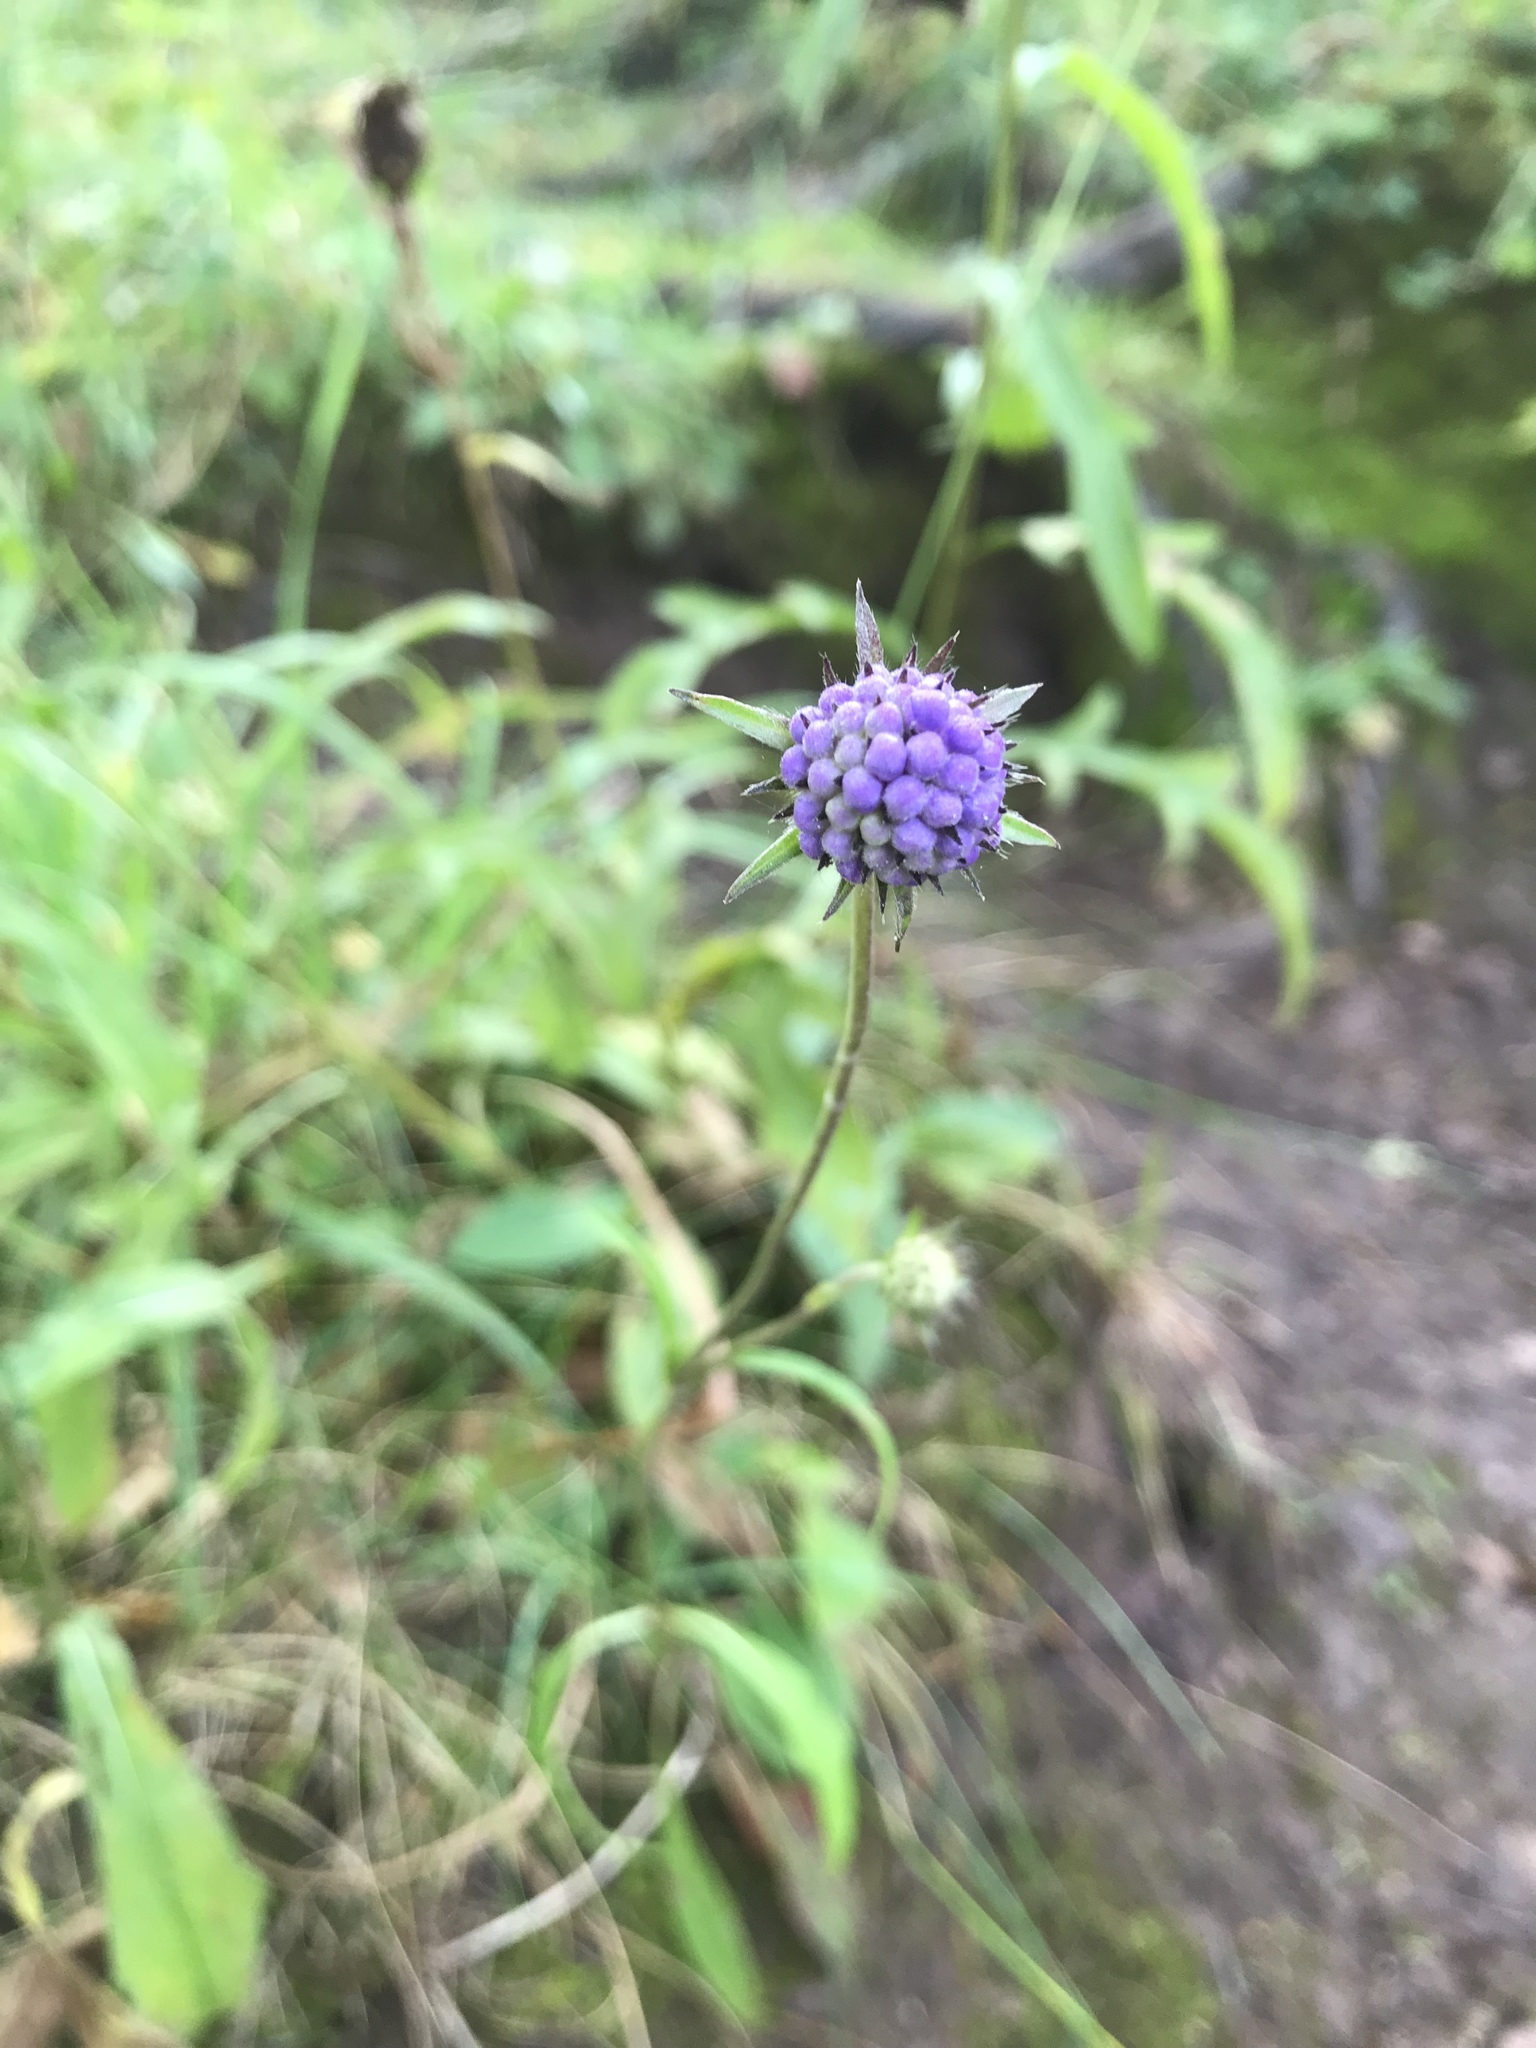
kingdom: Plantae
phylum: Tracheophyta
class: Magnoliopsida
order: Dipsacales
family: Caprifoliaceae
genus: Succisa
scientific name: Succisa pratensis
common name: Devil's-bit
